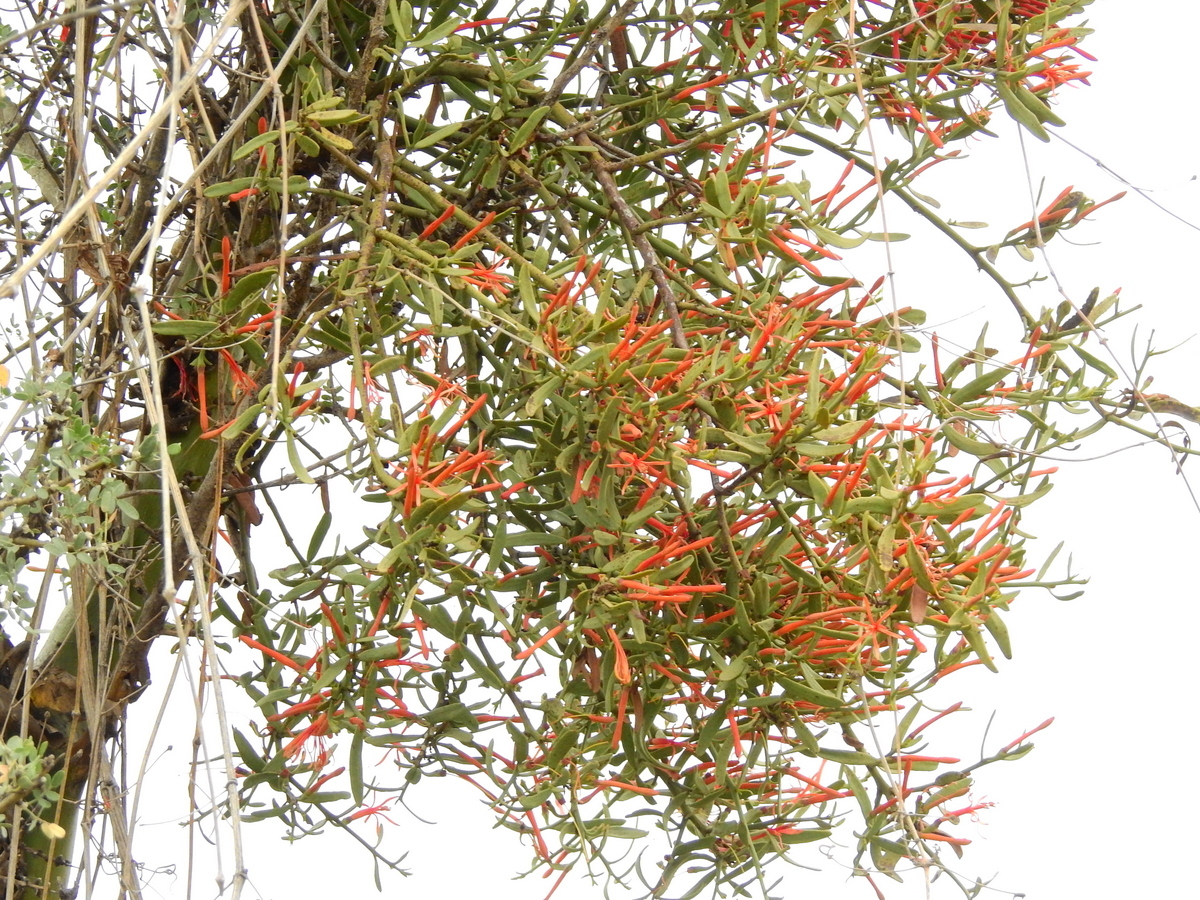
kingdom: Plantae
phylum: Tracheophyta
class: Magnoliopsida
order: Santalales
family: Loranthaceae
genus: Ligaria
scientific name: Ligaria cuneifolia
